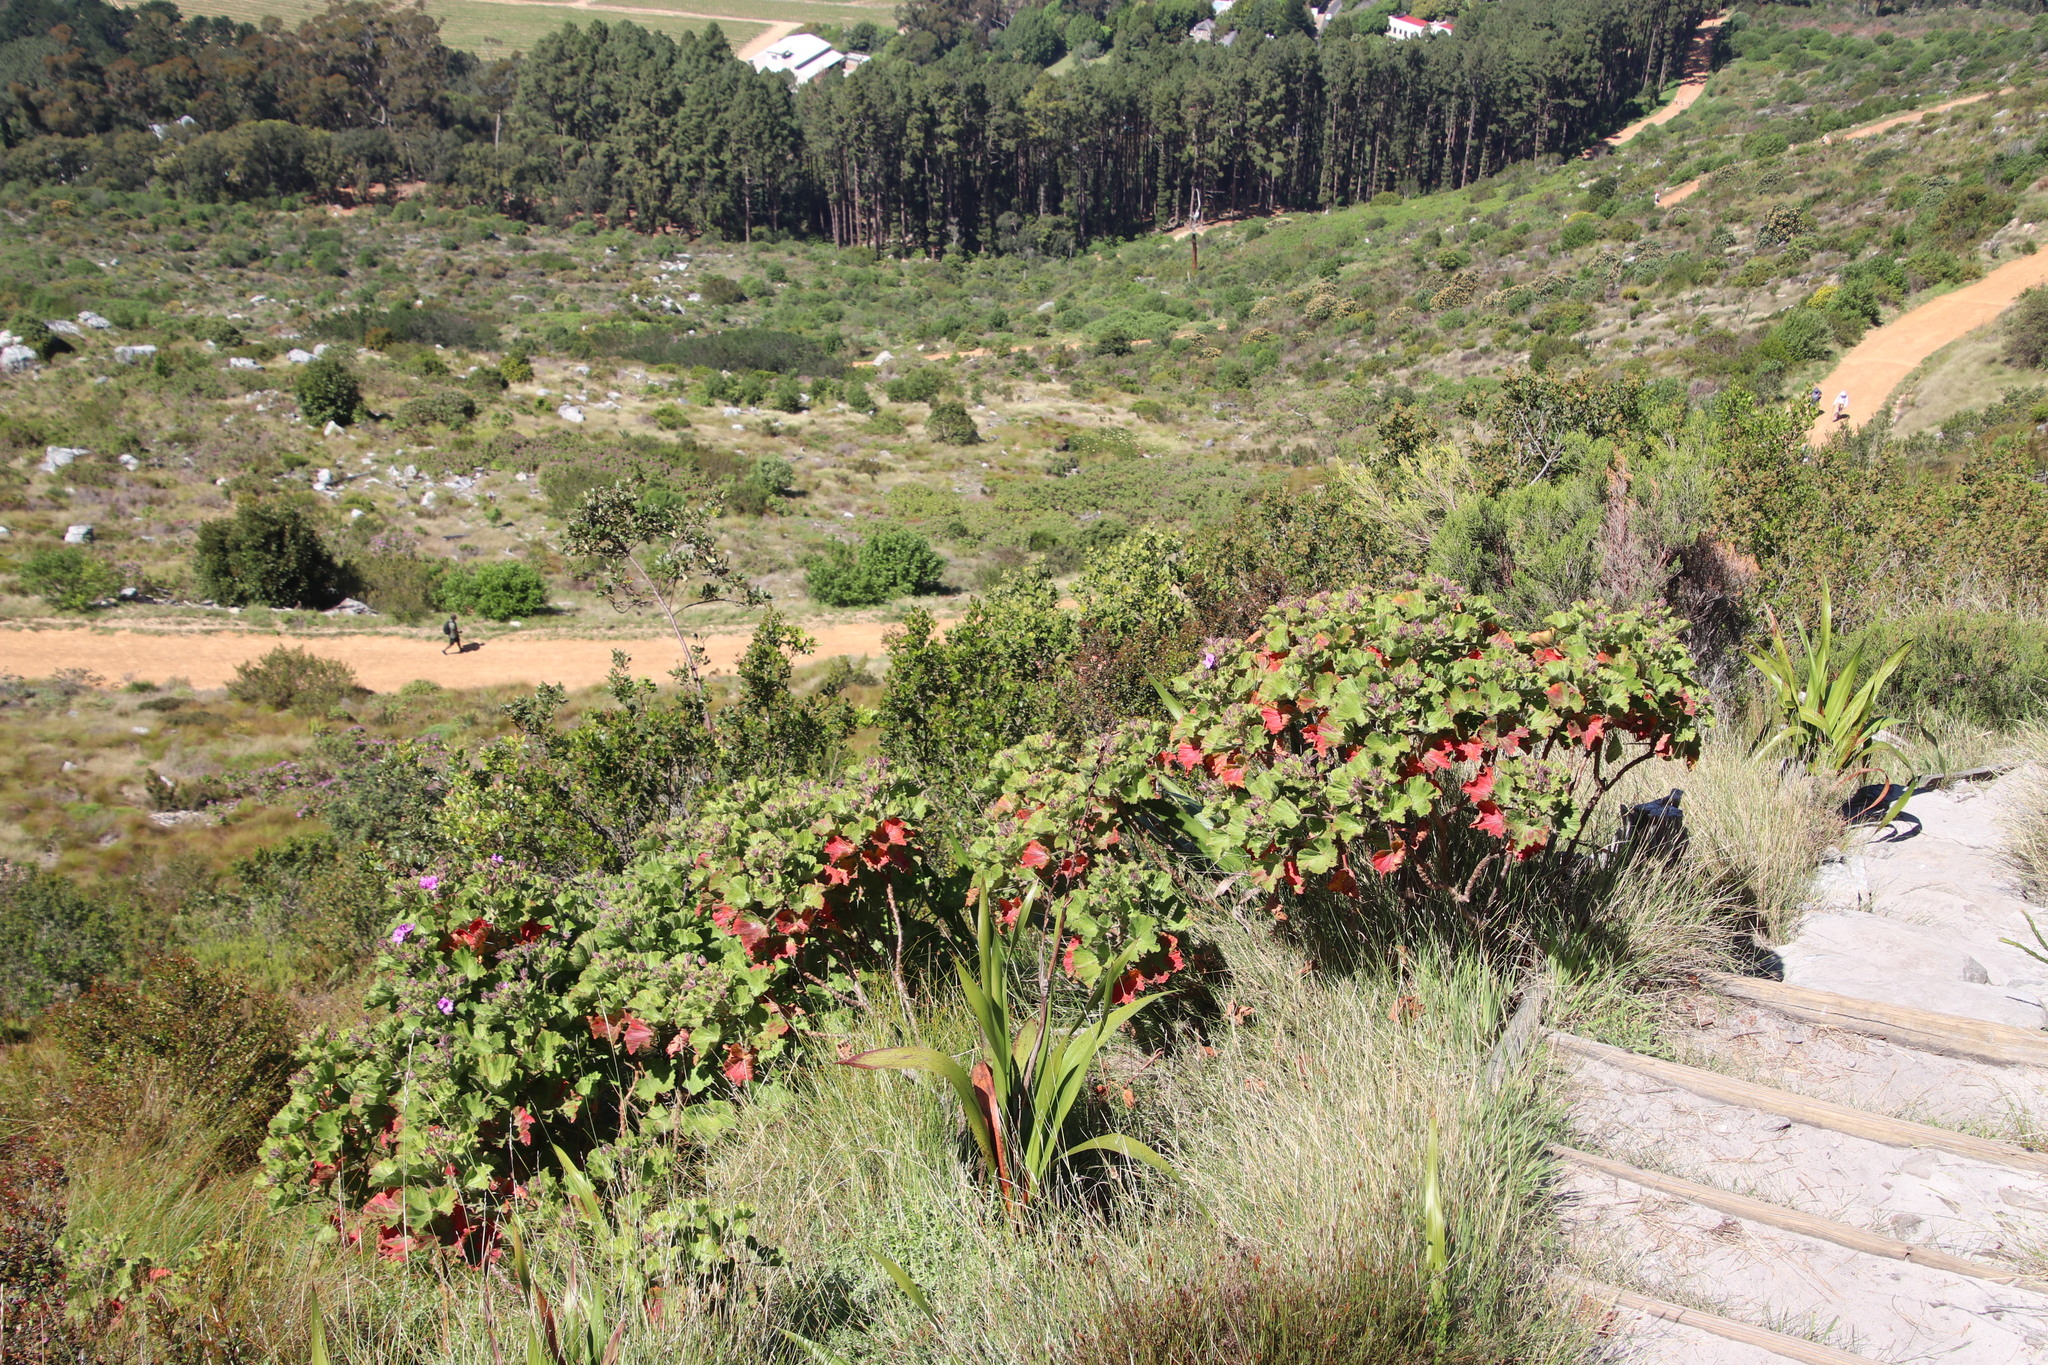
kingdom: Plantae
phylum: Tracheophyta
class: Magnoliopsida
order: Geraniales
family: Geraniaceae
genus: Pelargonium
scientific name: Pelargonium cucullatum
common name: Tree pelargonium
